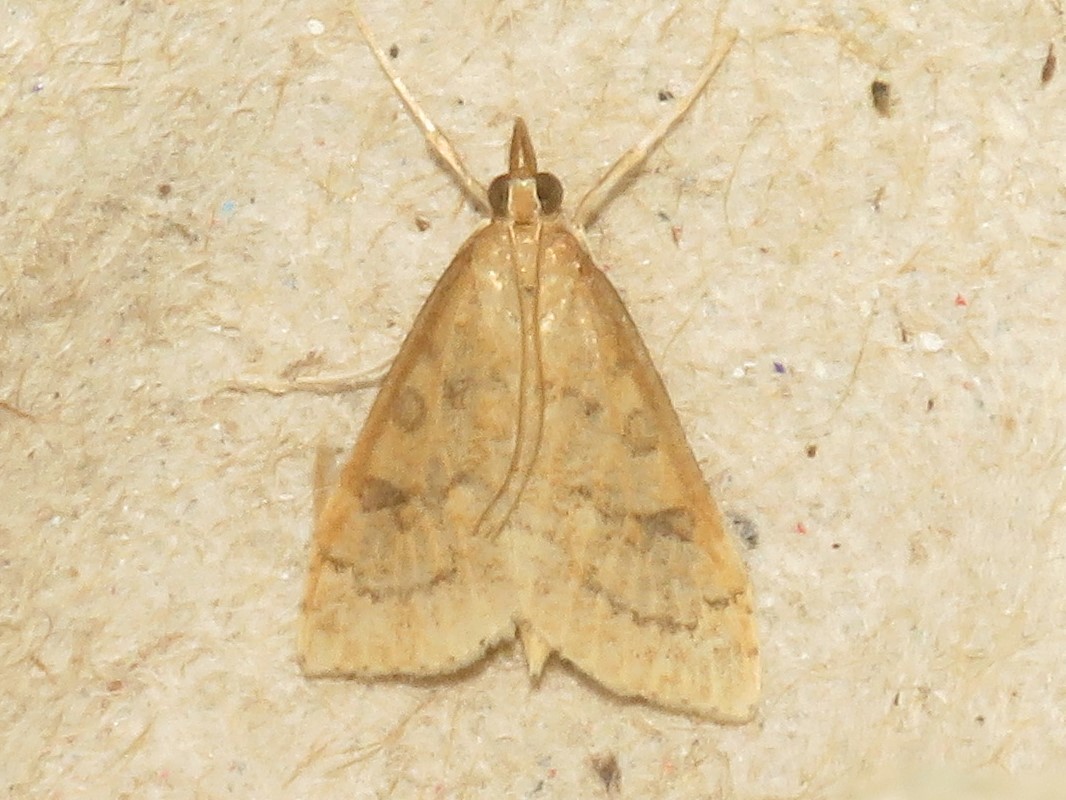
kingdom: Animalia
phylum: Arthropoda
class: Insecta
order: Lepidoptera
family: Crambidae
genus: Udea
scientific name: Udea rubigalis
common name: Celery leaftier moth
